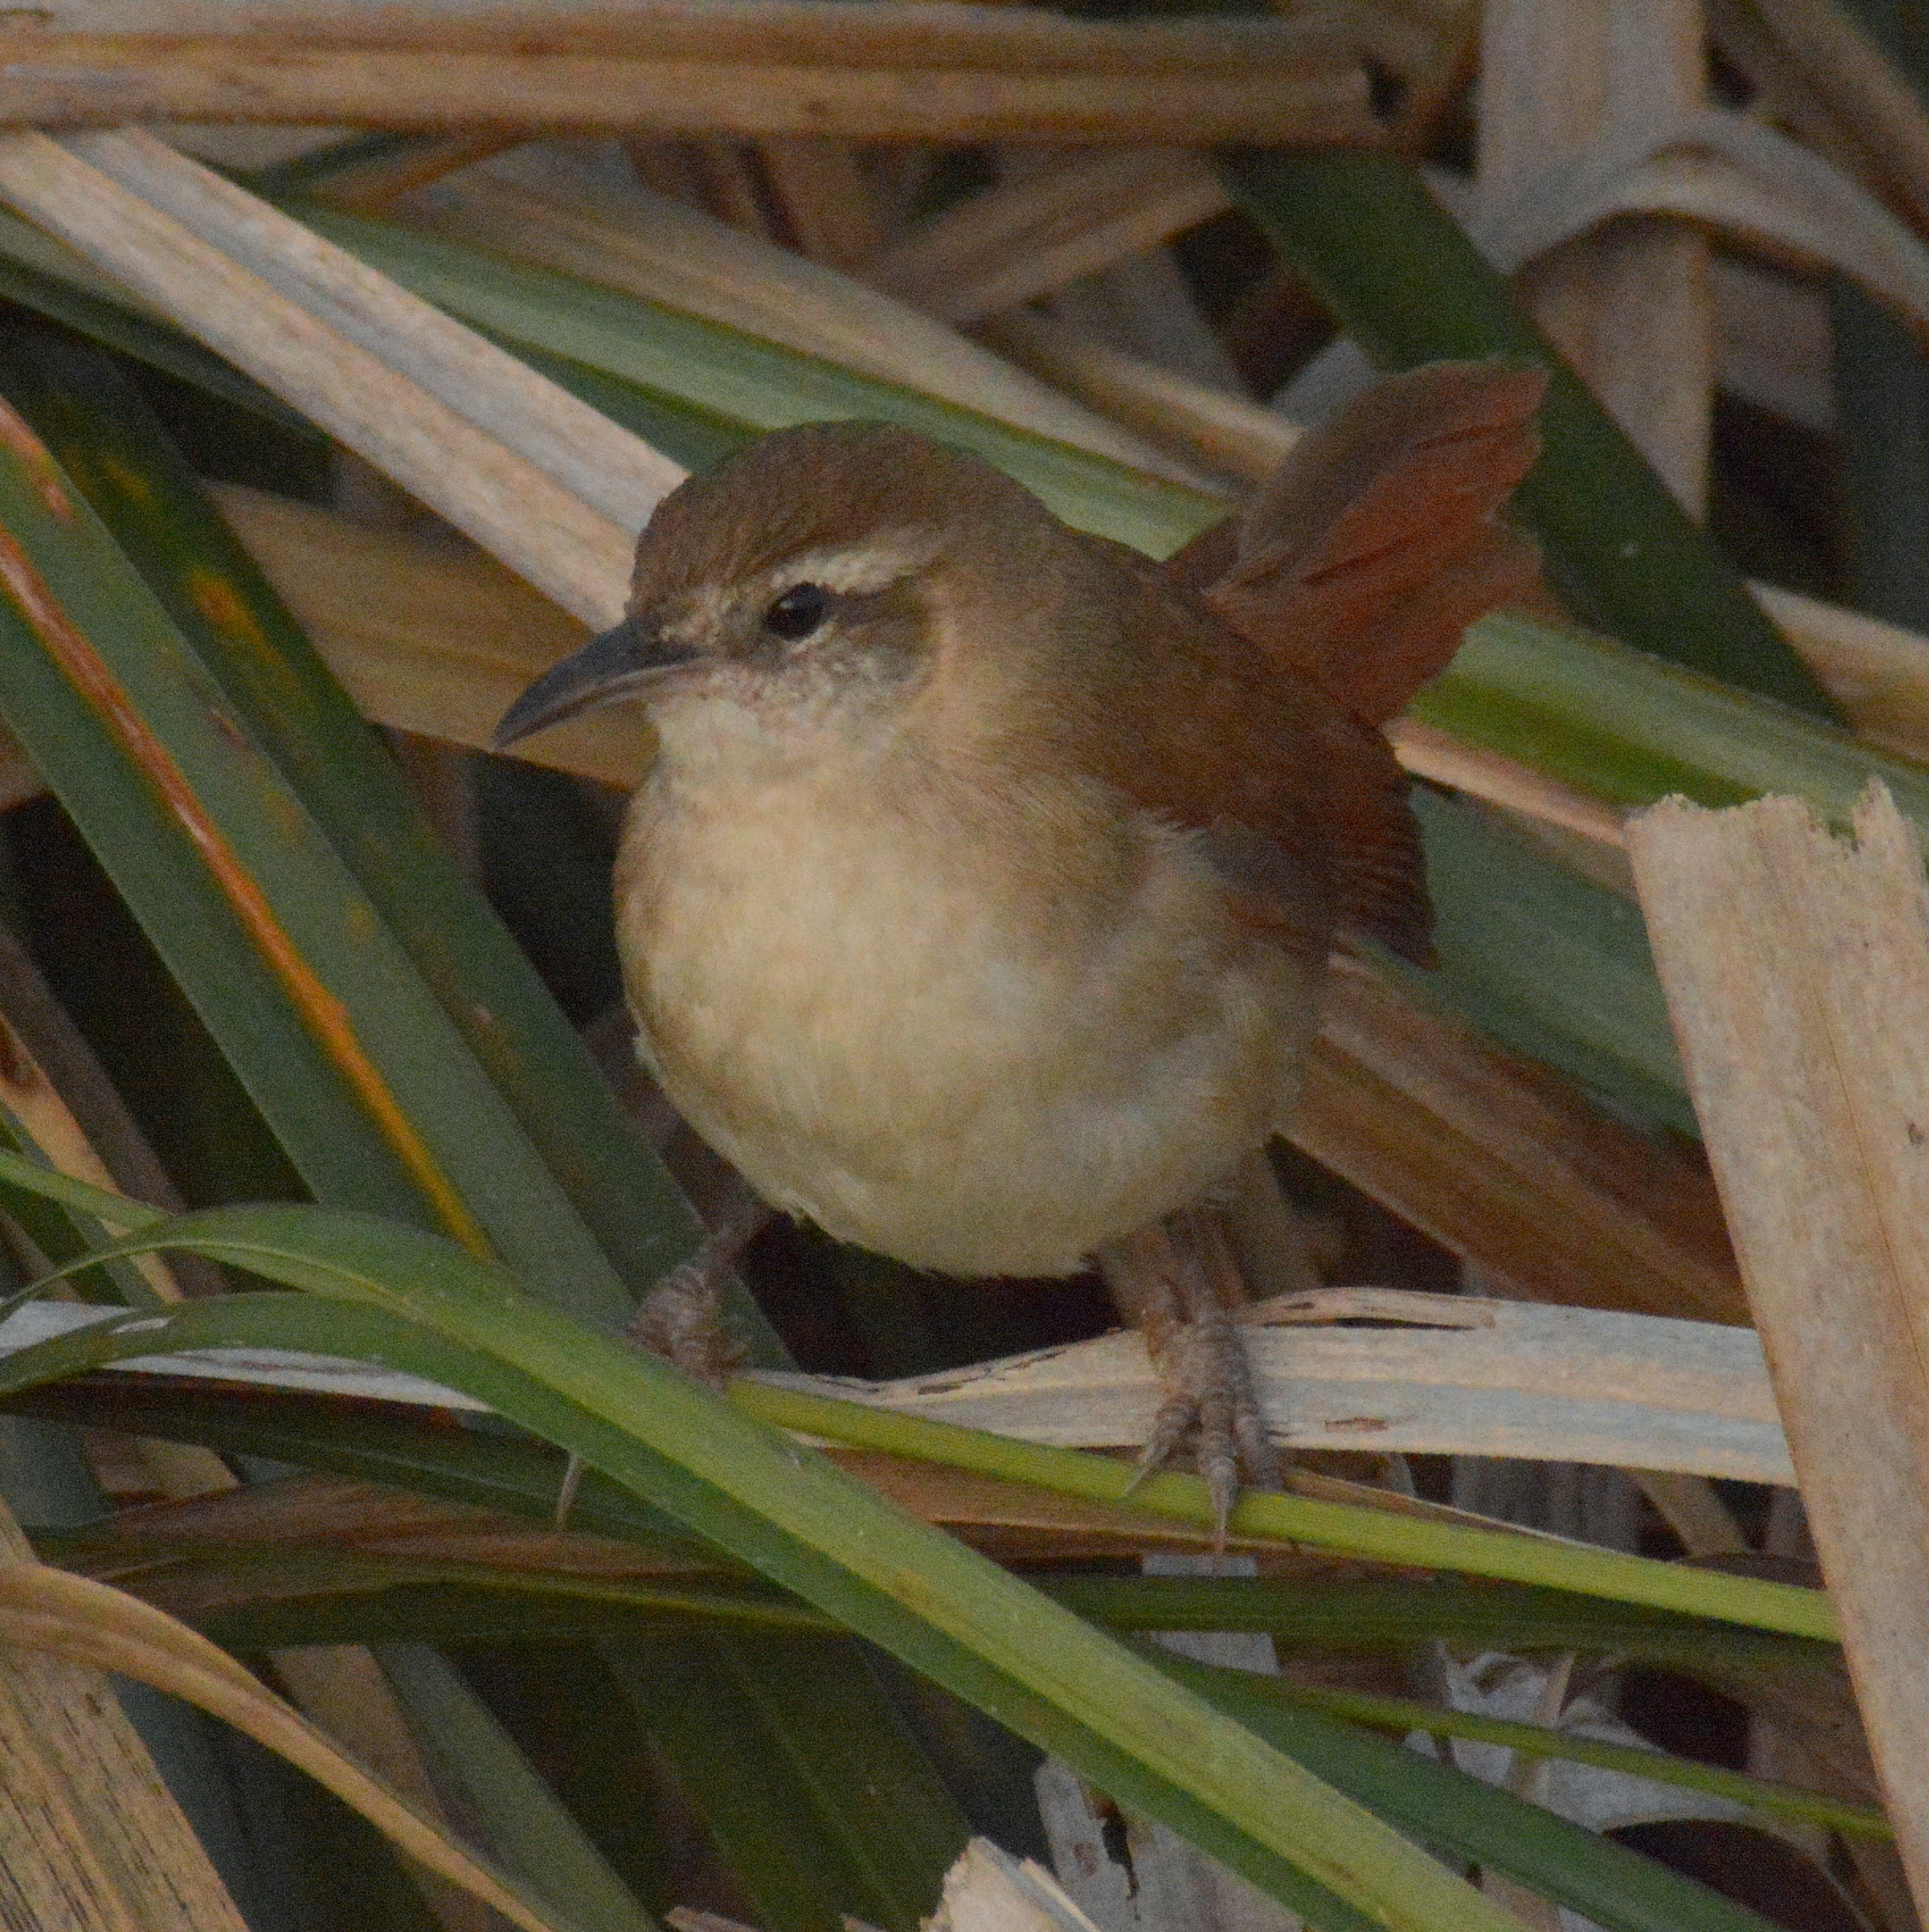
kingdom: Animalia
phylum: Chordata
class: Aves
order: Passeriformes
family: Furnariidae
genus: Limnornis
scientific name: Limnornis curvirostris
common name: Curve-billed reedhaunter
